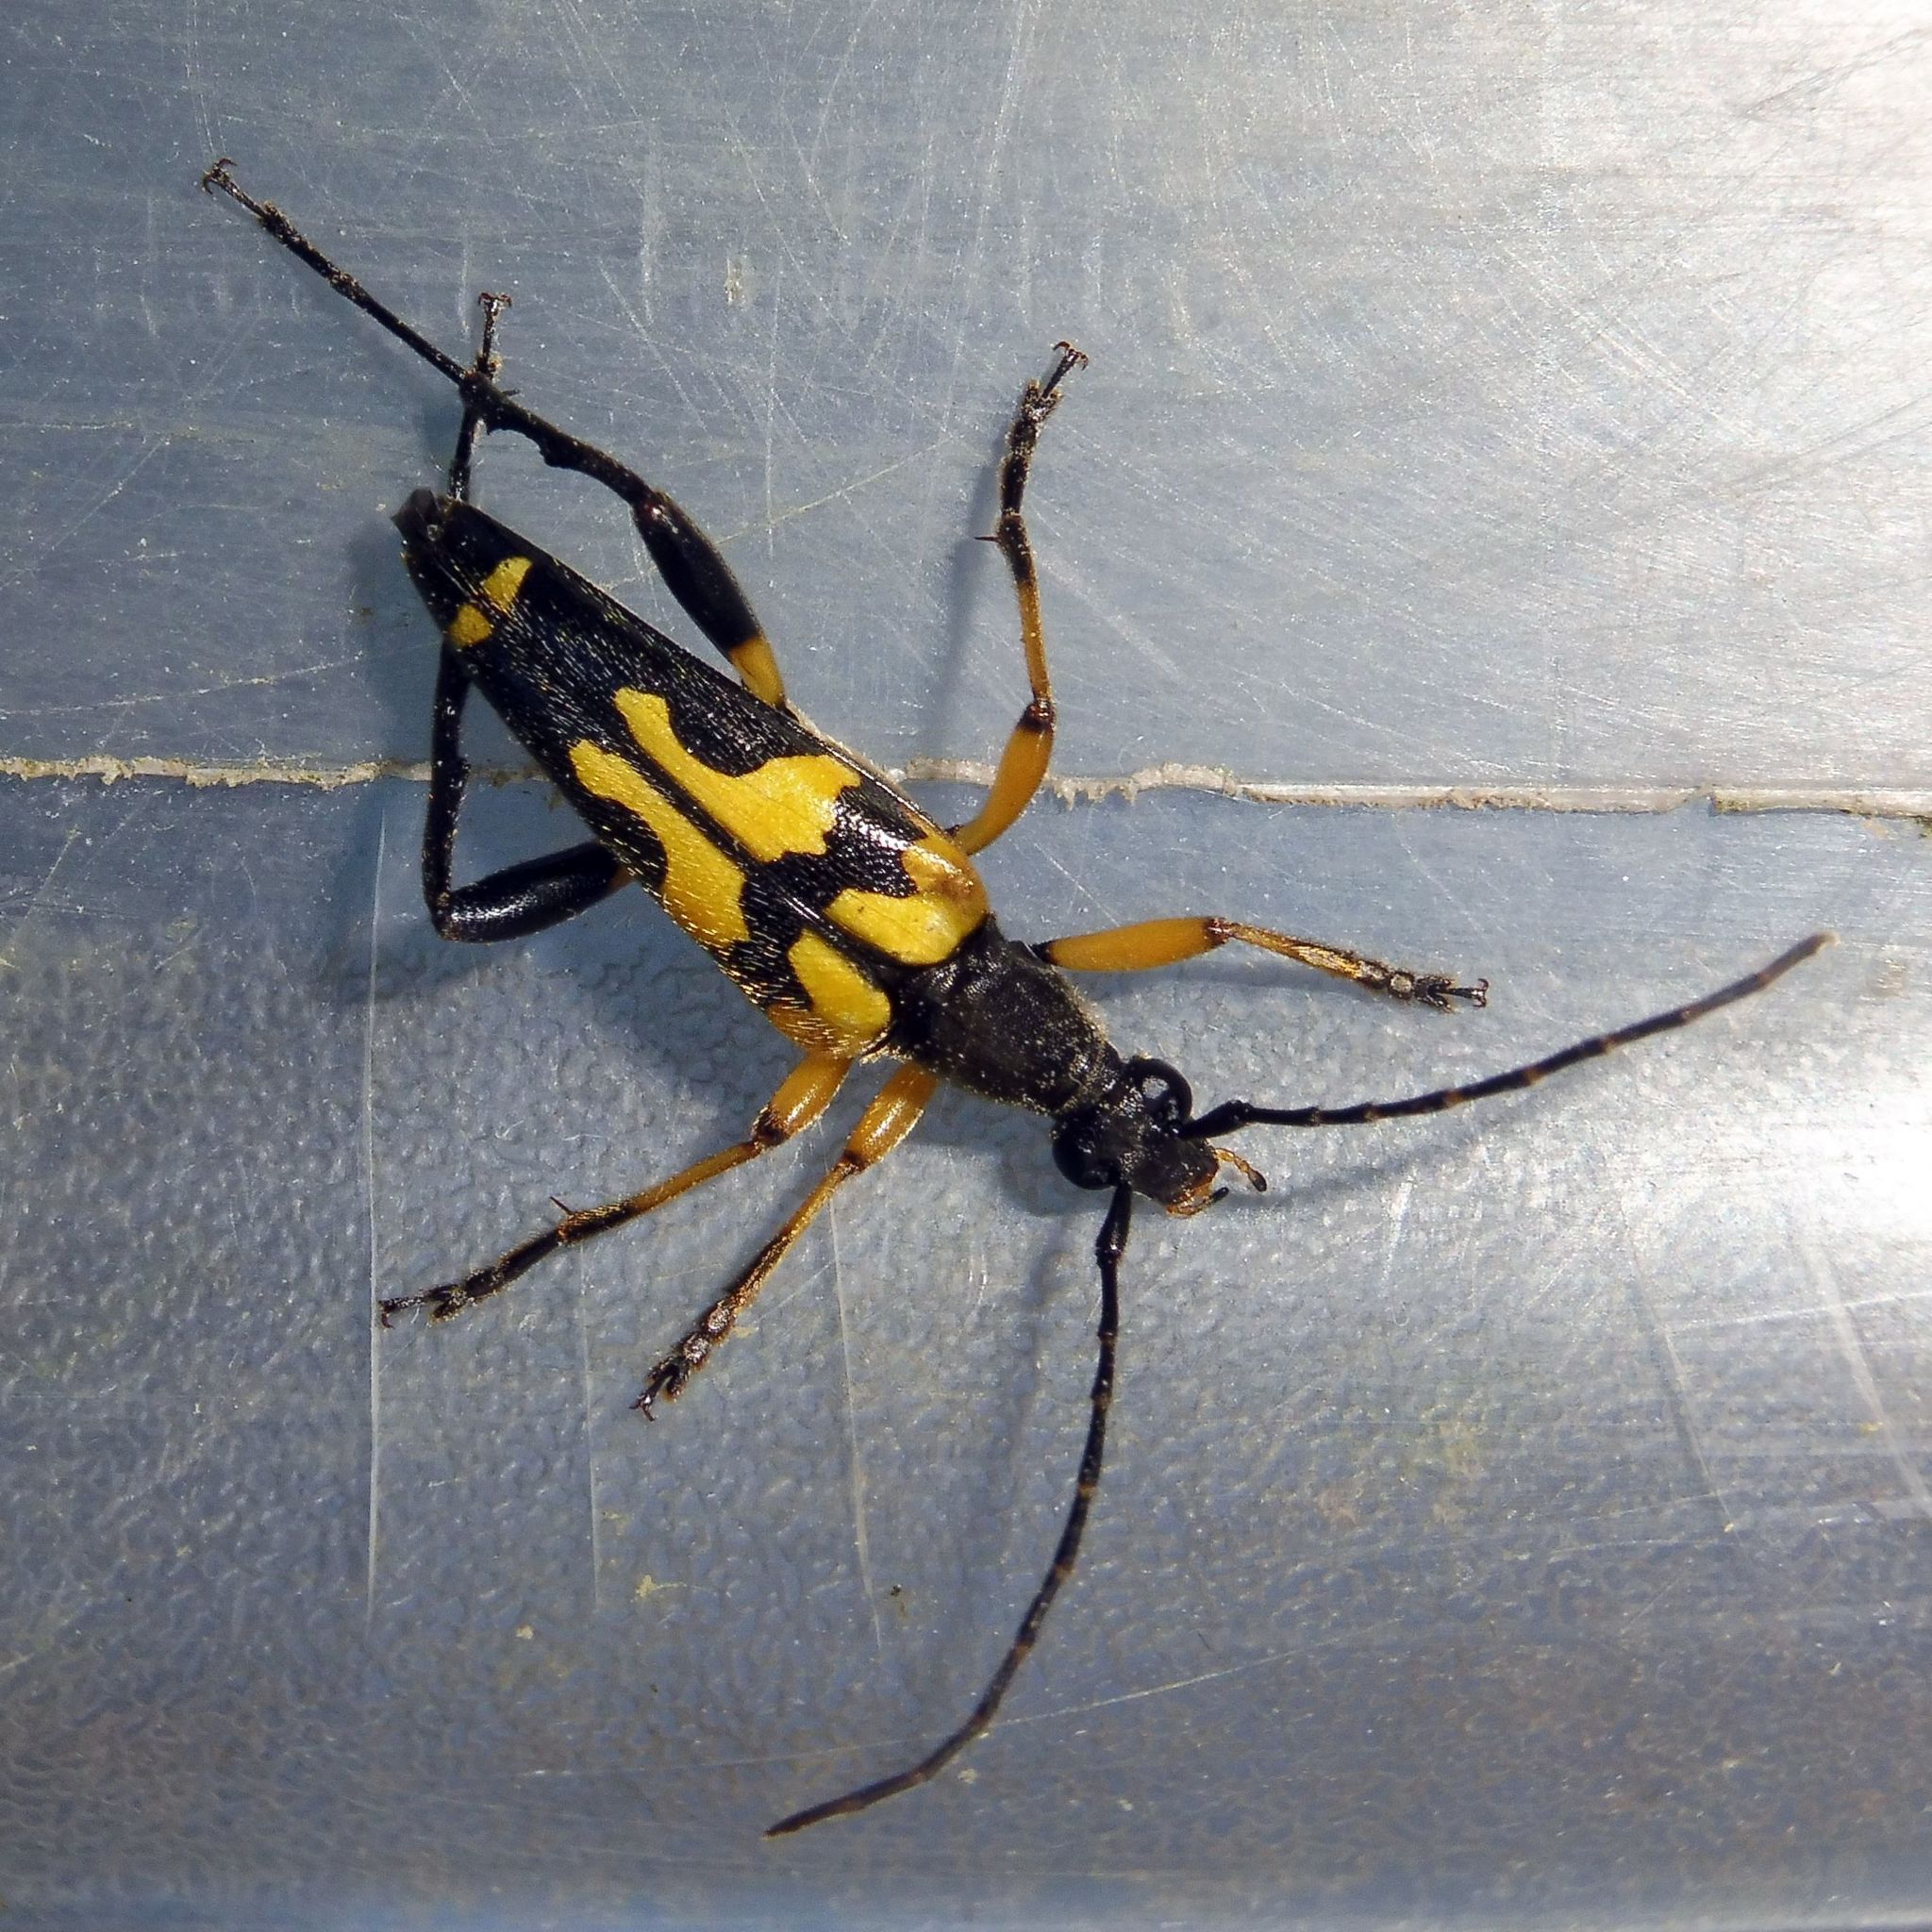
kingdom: Animalia
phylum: Arthropoda
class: Insecta
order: Coleoptera
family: Cerambycidae
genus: Rutpela
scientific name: Rutpela maculata
